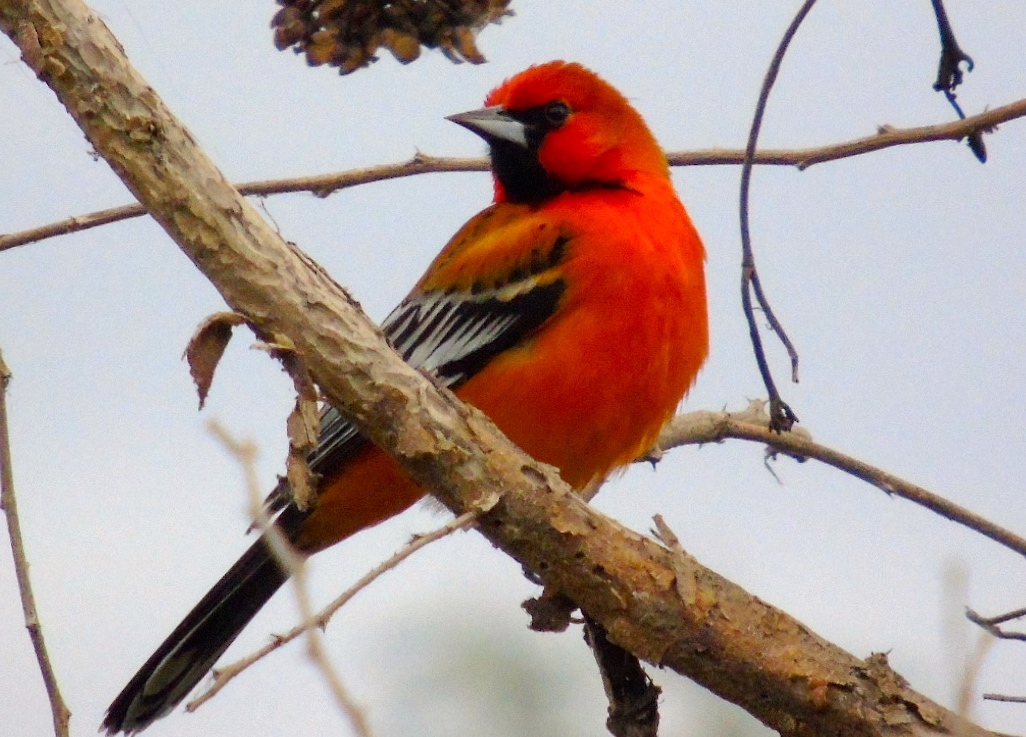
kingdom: Animalia
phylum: Chordata
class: Aves
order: Passeriformes
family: Icteridae
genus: Icterus
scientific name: Icterus pustulatus
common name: Streak-backed oriole
